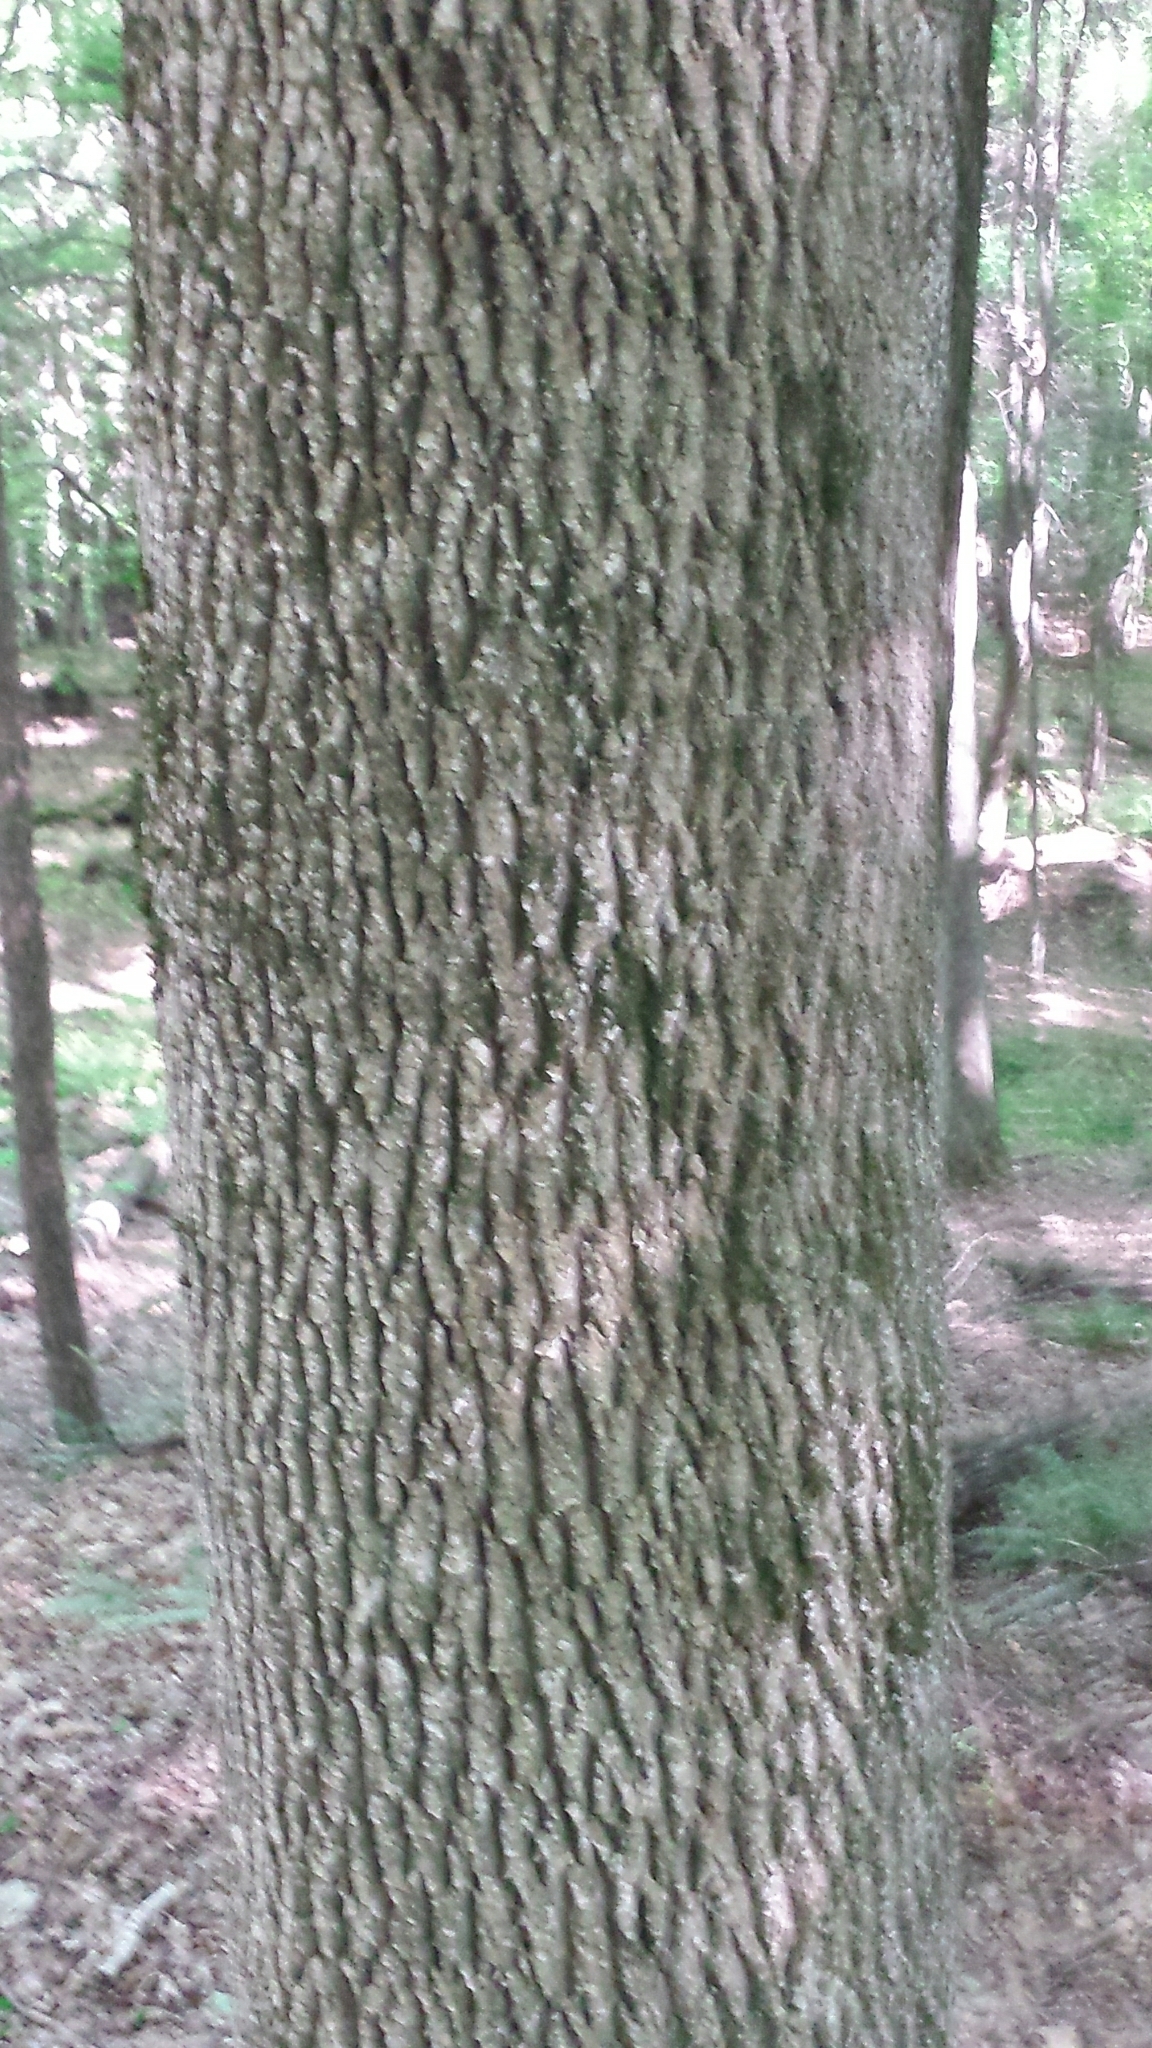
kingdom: Plantae
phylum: Tracheophyta
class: Magnoliopsida
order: Lamiales
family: Oleaceae
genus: Fraxinus
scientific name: Fraxinus americana
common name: White ash
